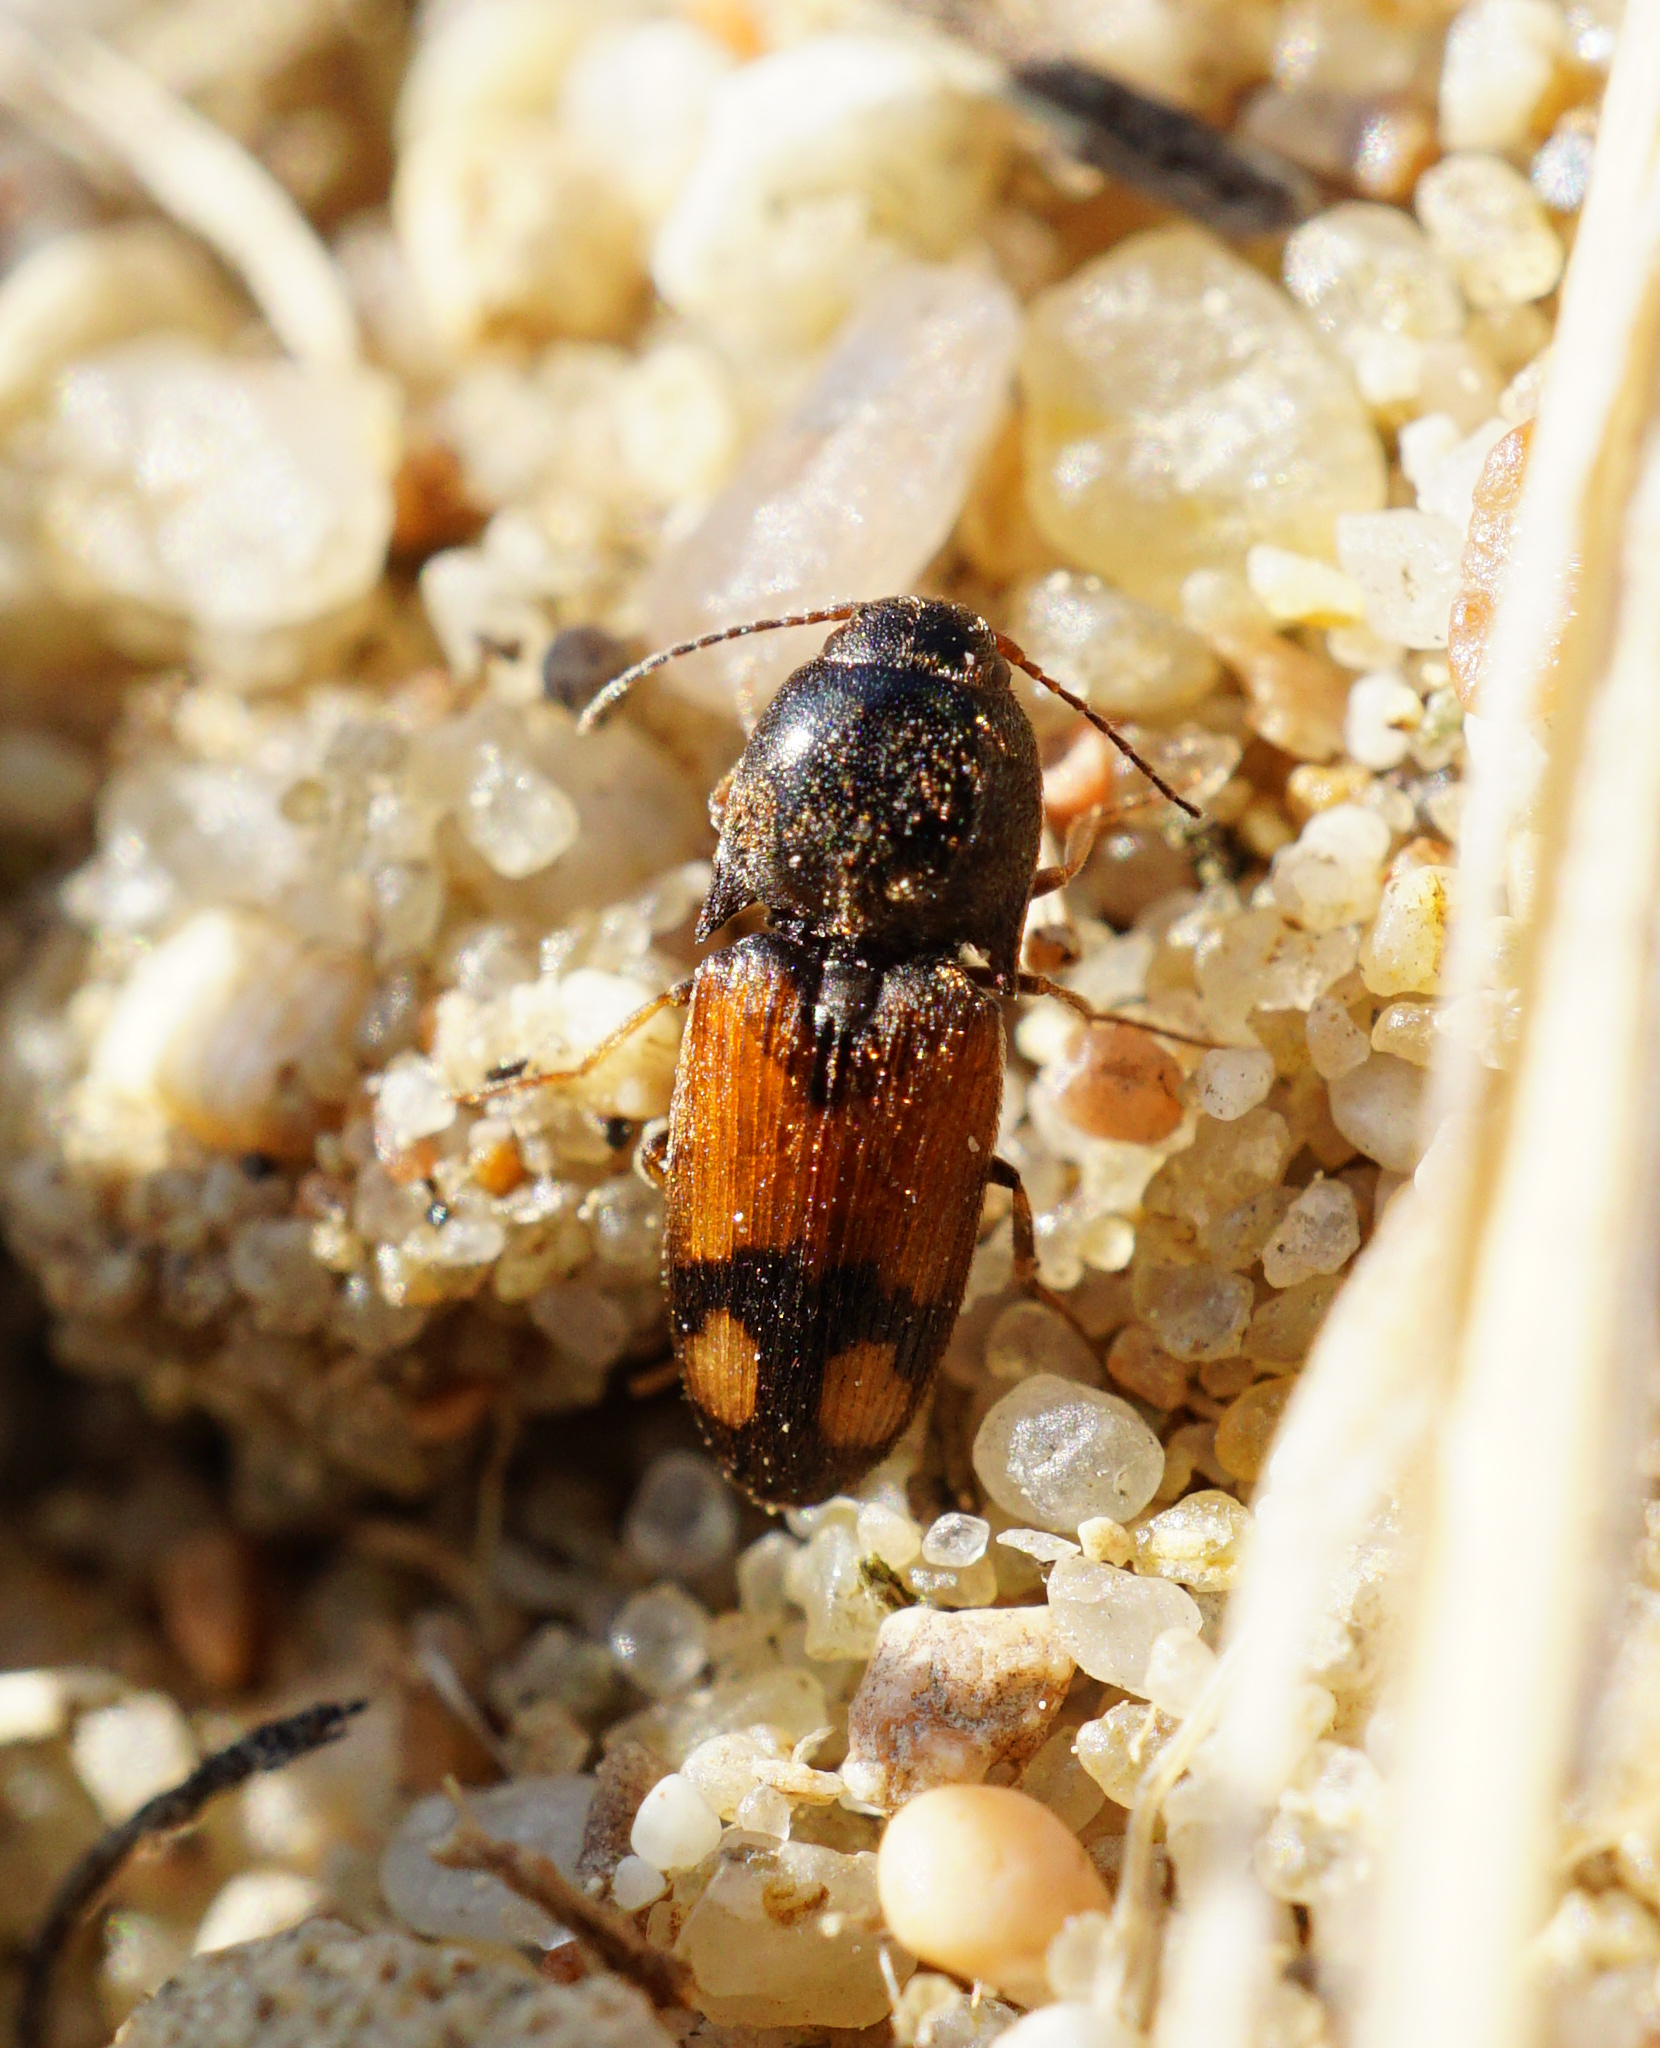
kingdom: Animalia
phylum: Arthropoda
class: Insecta
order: Coleoptera
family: Elateridae
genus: Drasterius
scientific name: Drasterius bimaculatus
